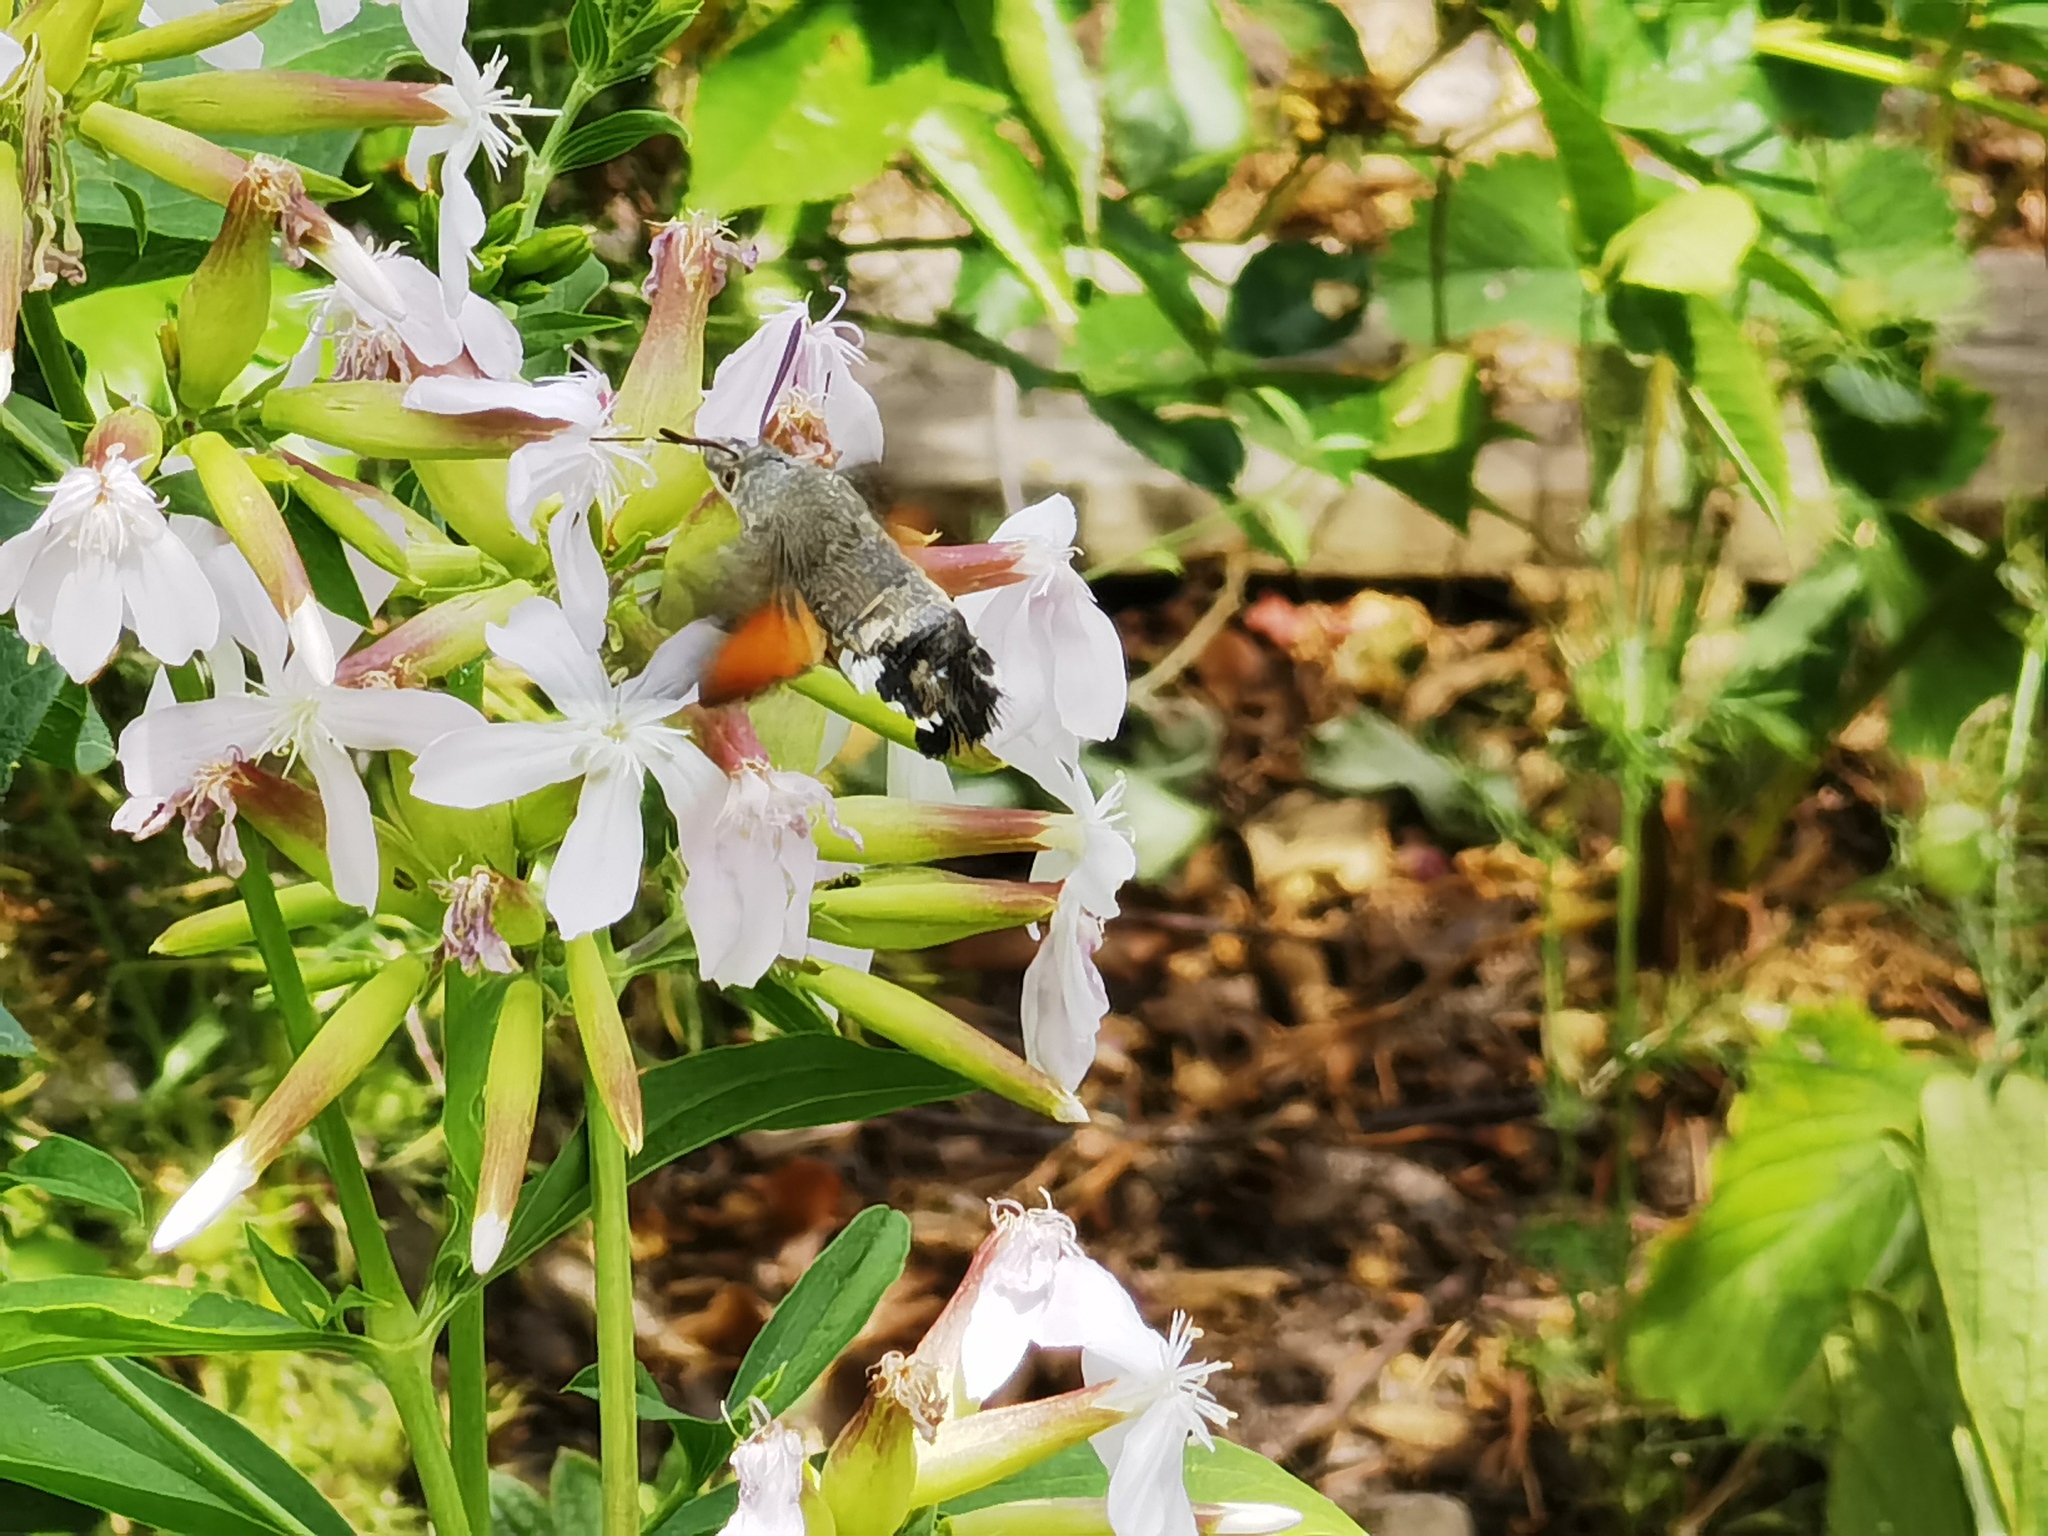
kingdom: Animalia
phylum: Arthropoda
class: Insecta
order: Lepidoptera
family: Sphingidae
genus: Macroglossum
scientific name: Macroglossum stellatarum
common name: Humming-bird hawk-moth
